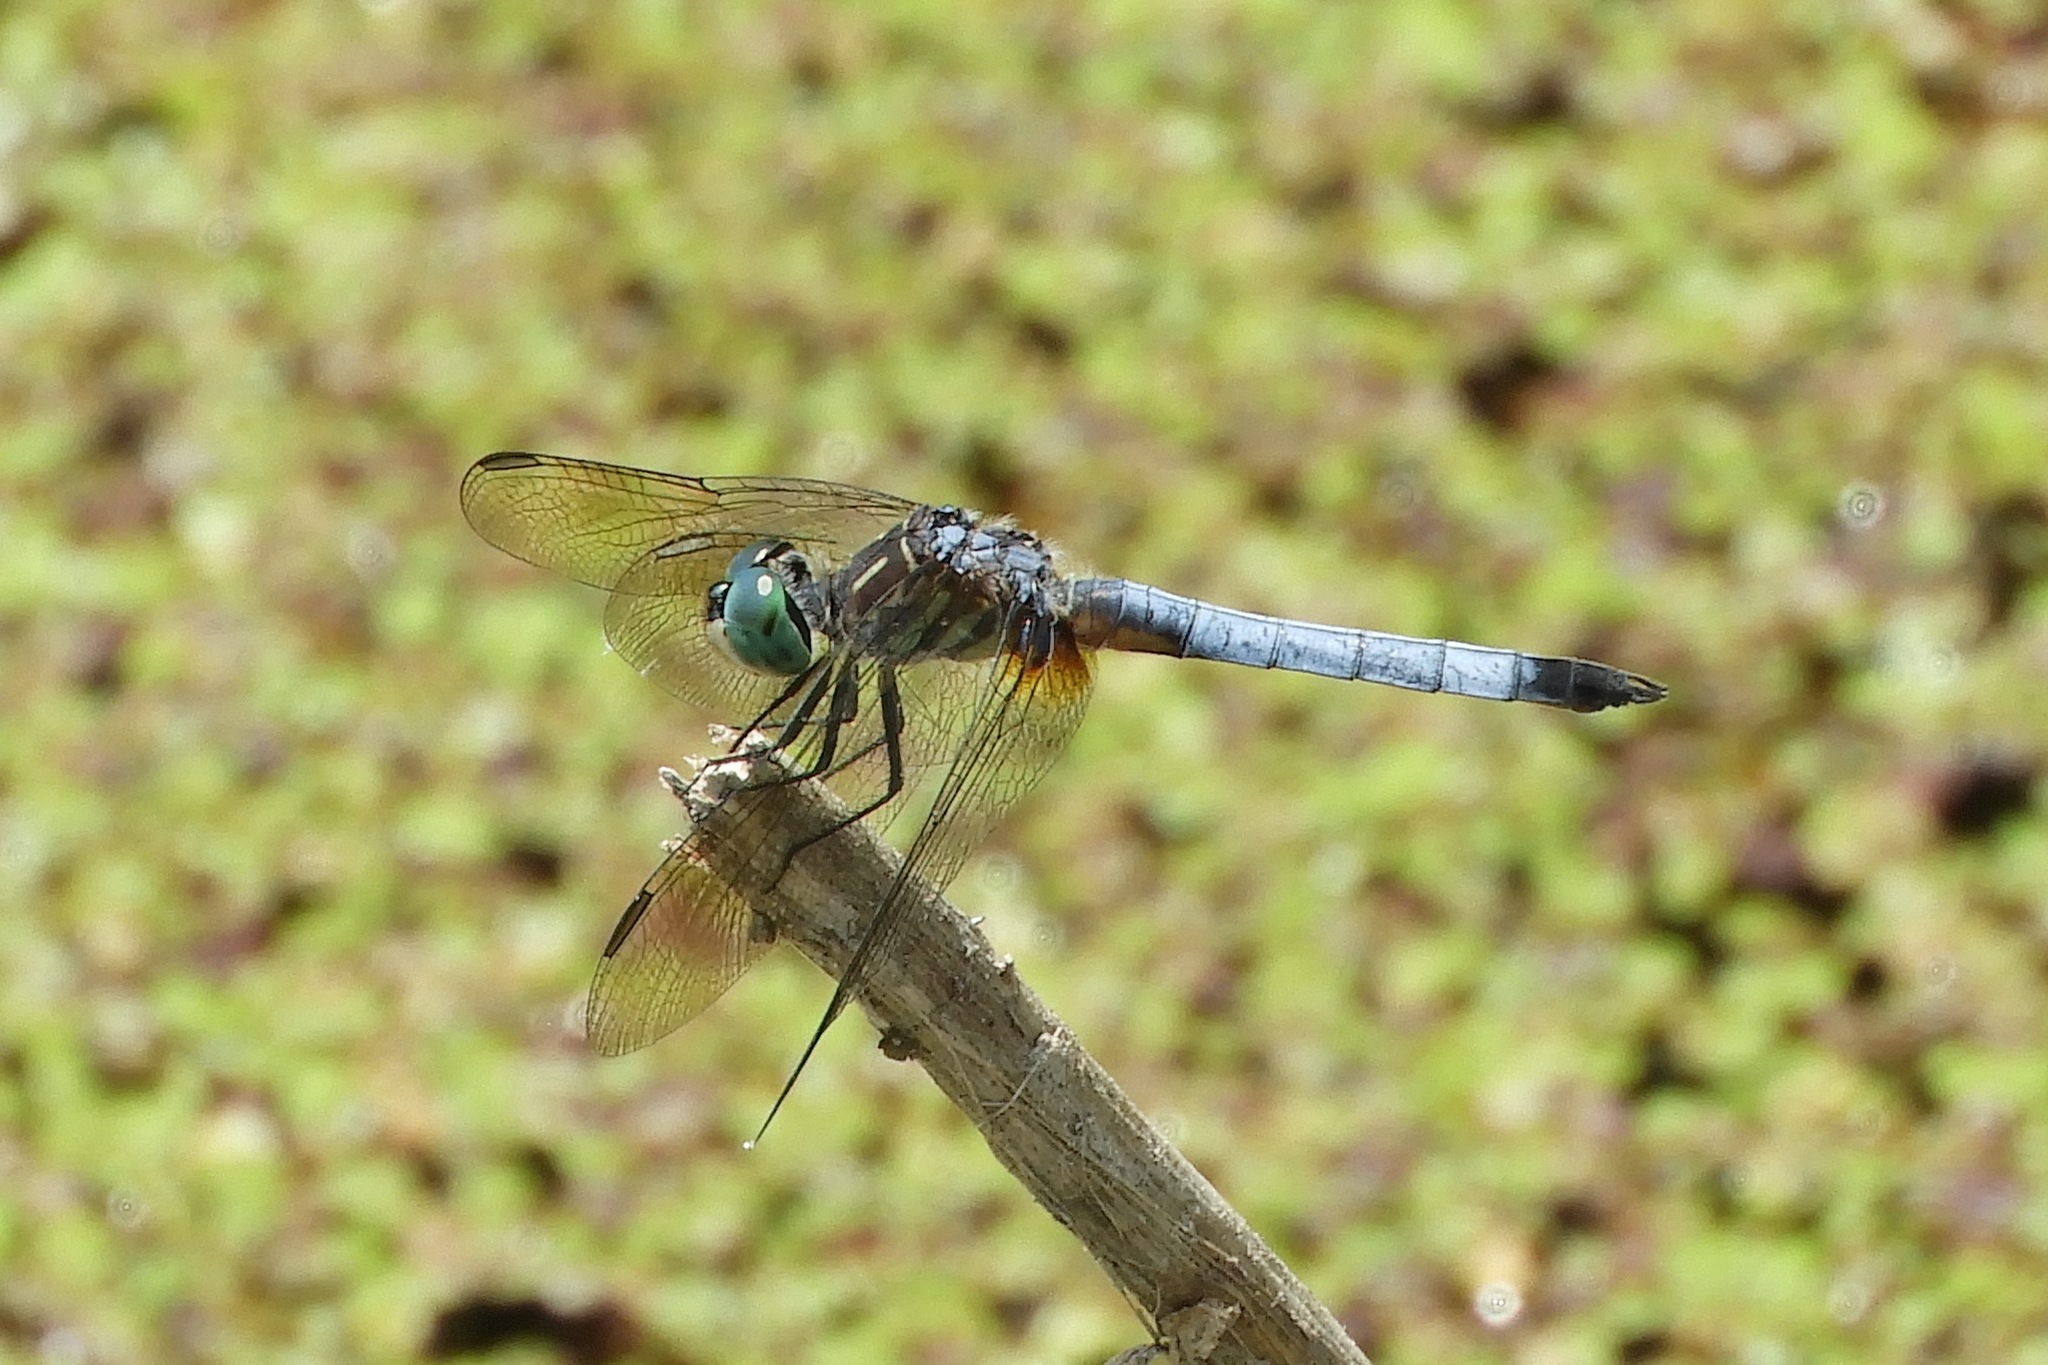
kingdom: Animalia
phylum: Arthropoda
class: Insecta
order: Odonata
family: Libellulidae
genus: Pachydiplax
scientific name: Pachydiplax longipennis
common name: Blue dasher
